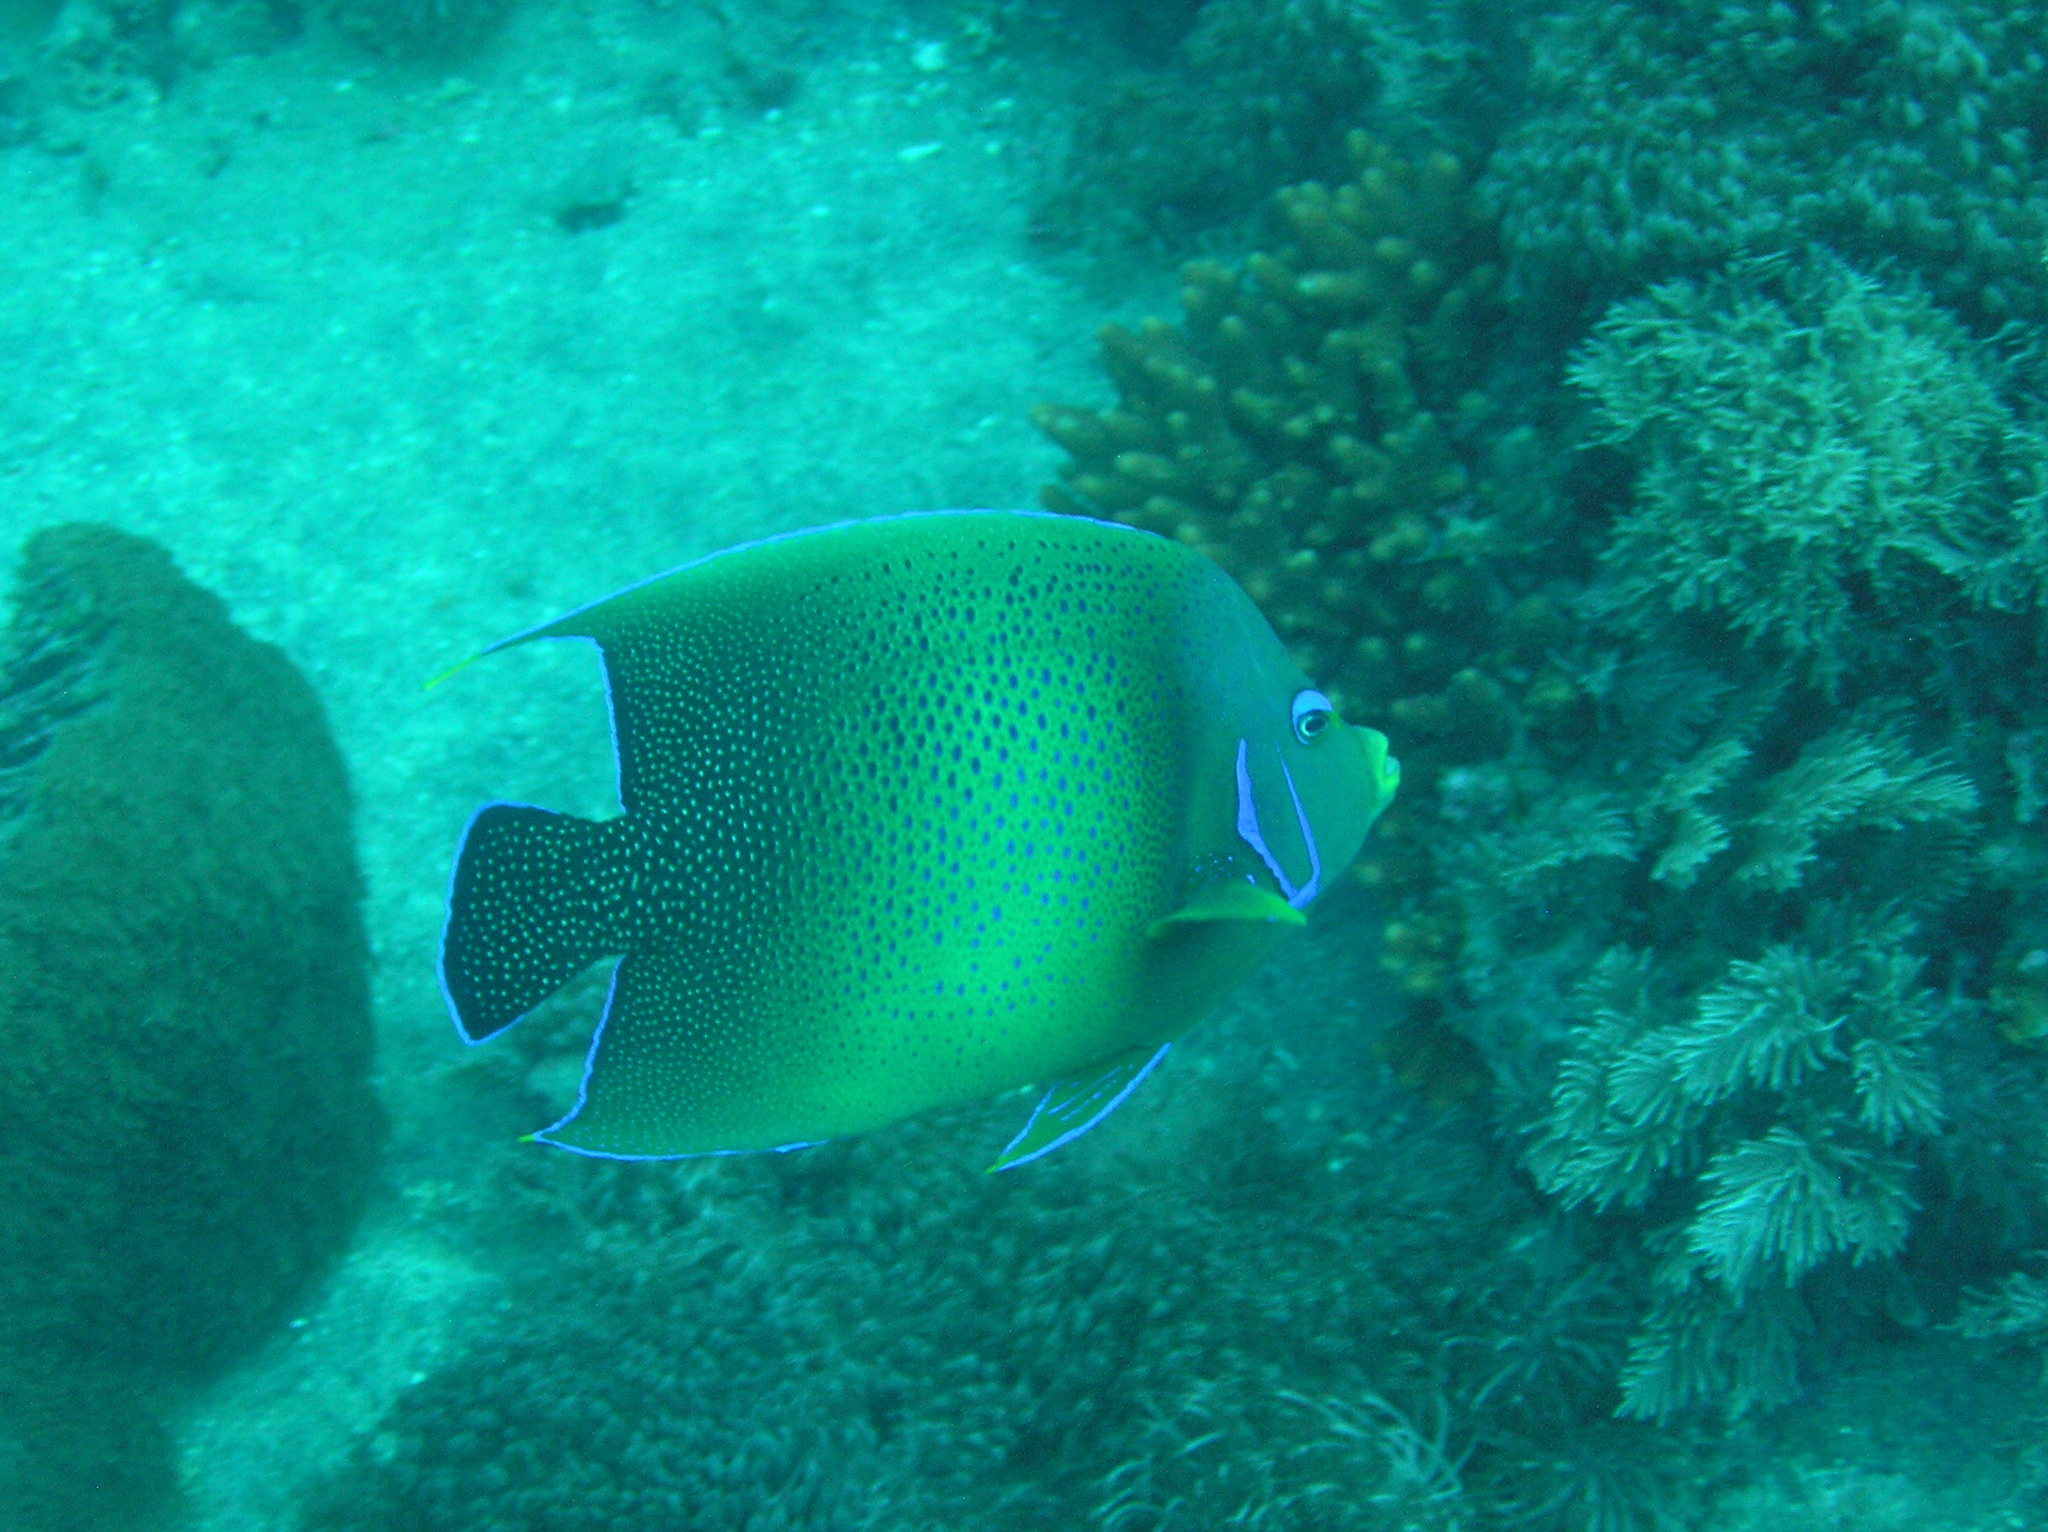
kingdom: Animalia
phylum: Chordata
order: Perciformes
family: Pomacanthidae
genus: Pomacanthus
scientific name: Pomacanthus semicirculatus
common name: Semicircle angelfish
